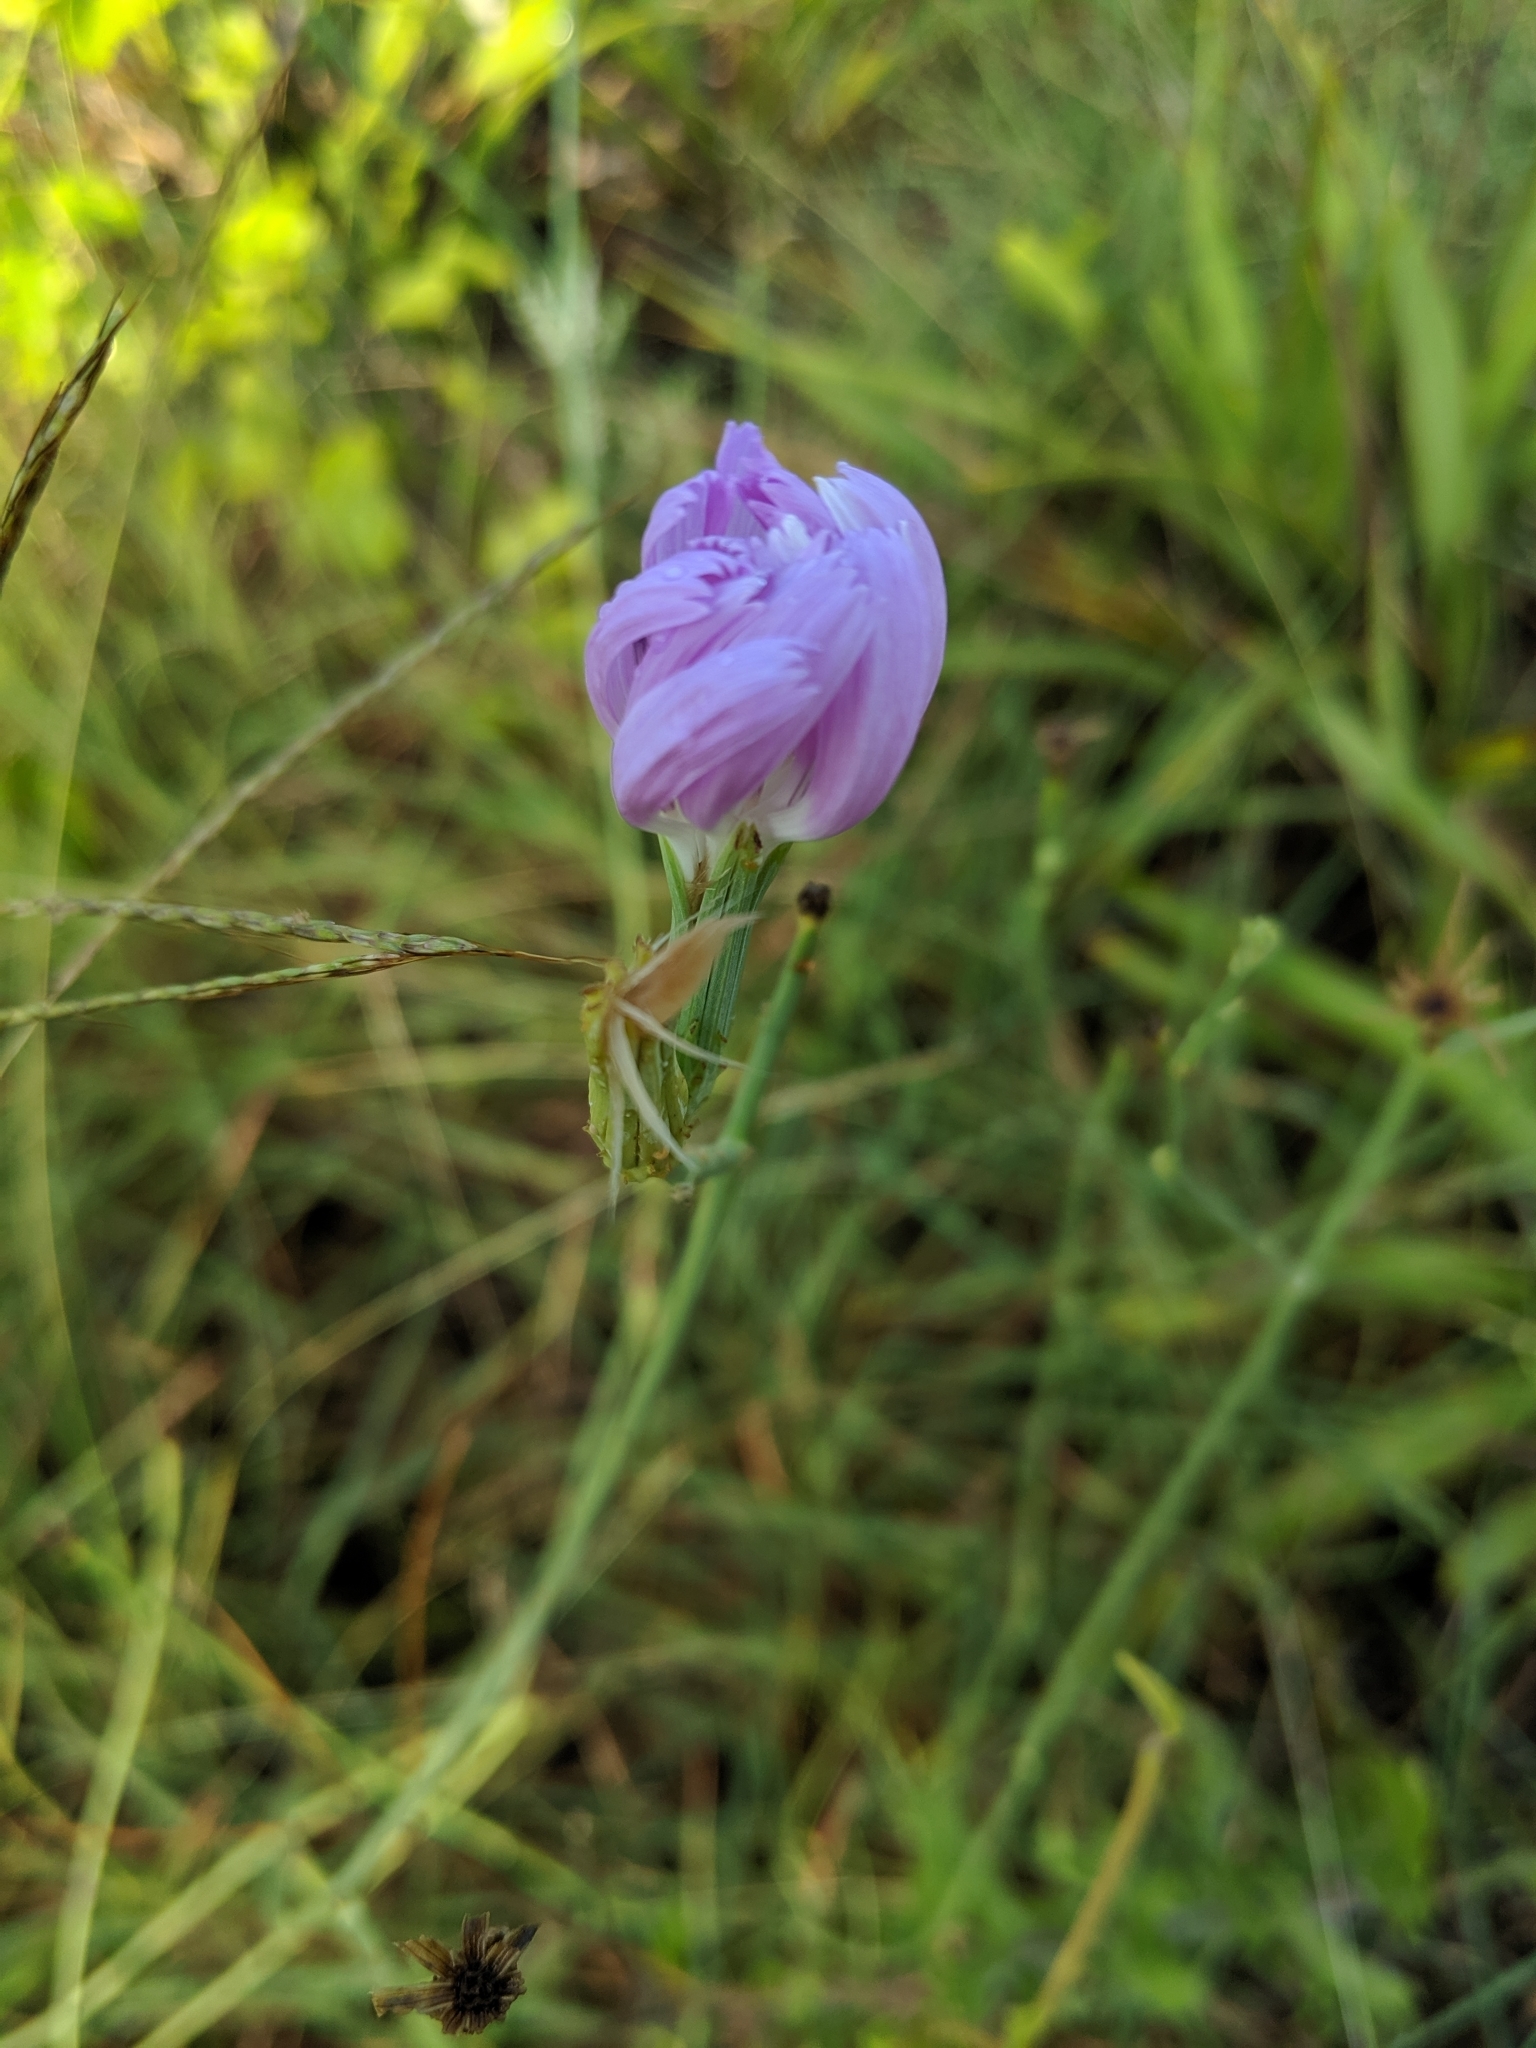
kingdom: Plantae
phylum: Tracheophyta
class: Magnoliopsida
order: Asterales
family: Asteraceae
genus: Lygodesmia
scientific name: Lygodesmia texana
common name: Texas skeleton-plant
